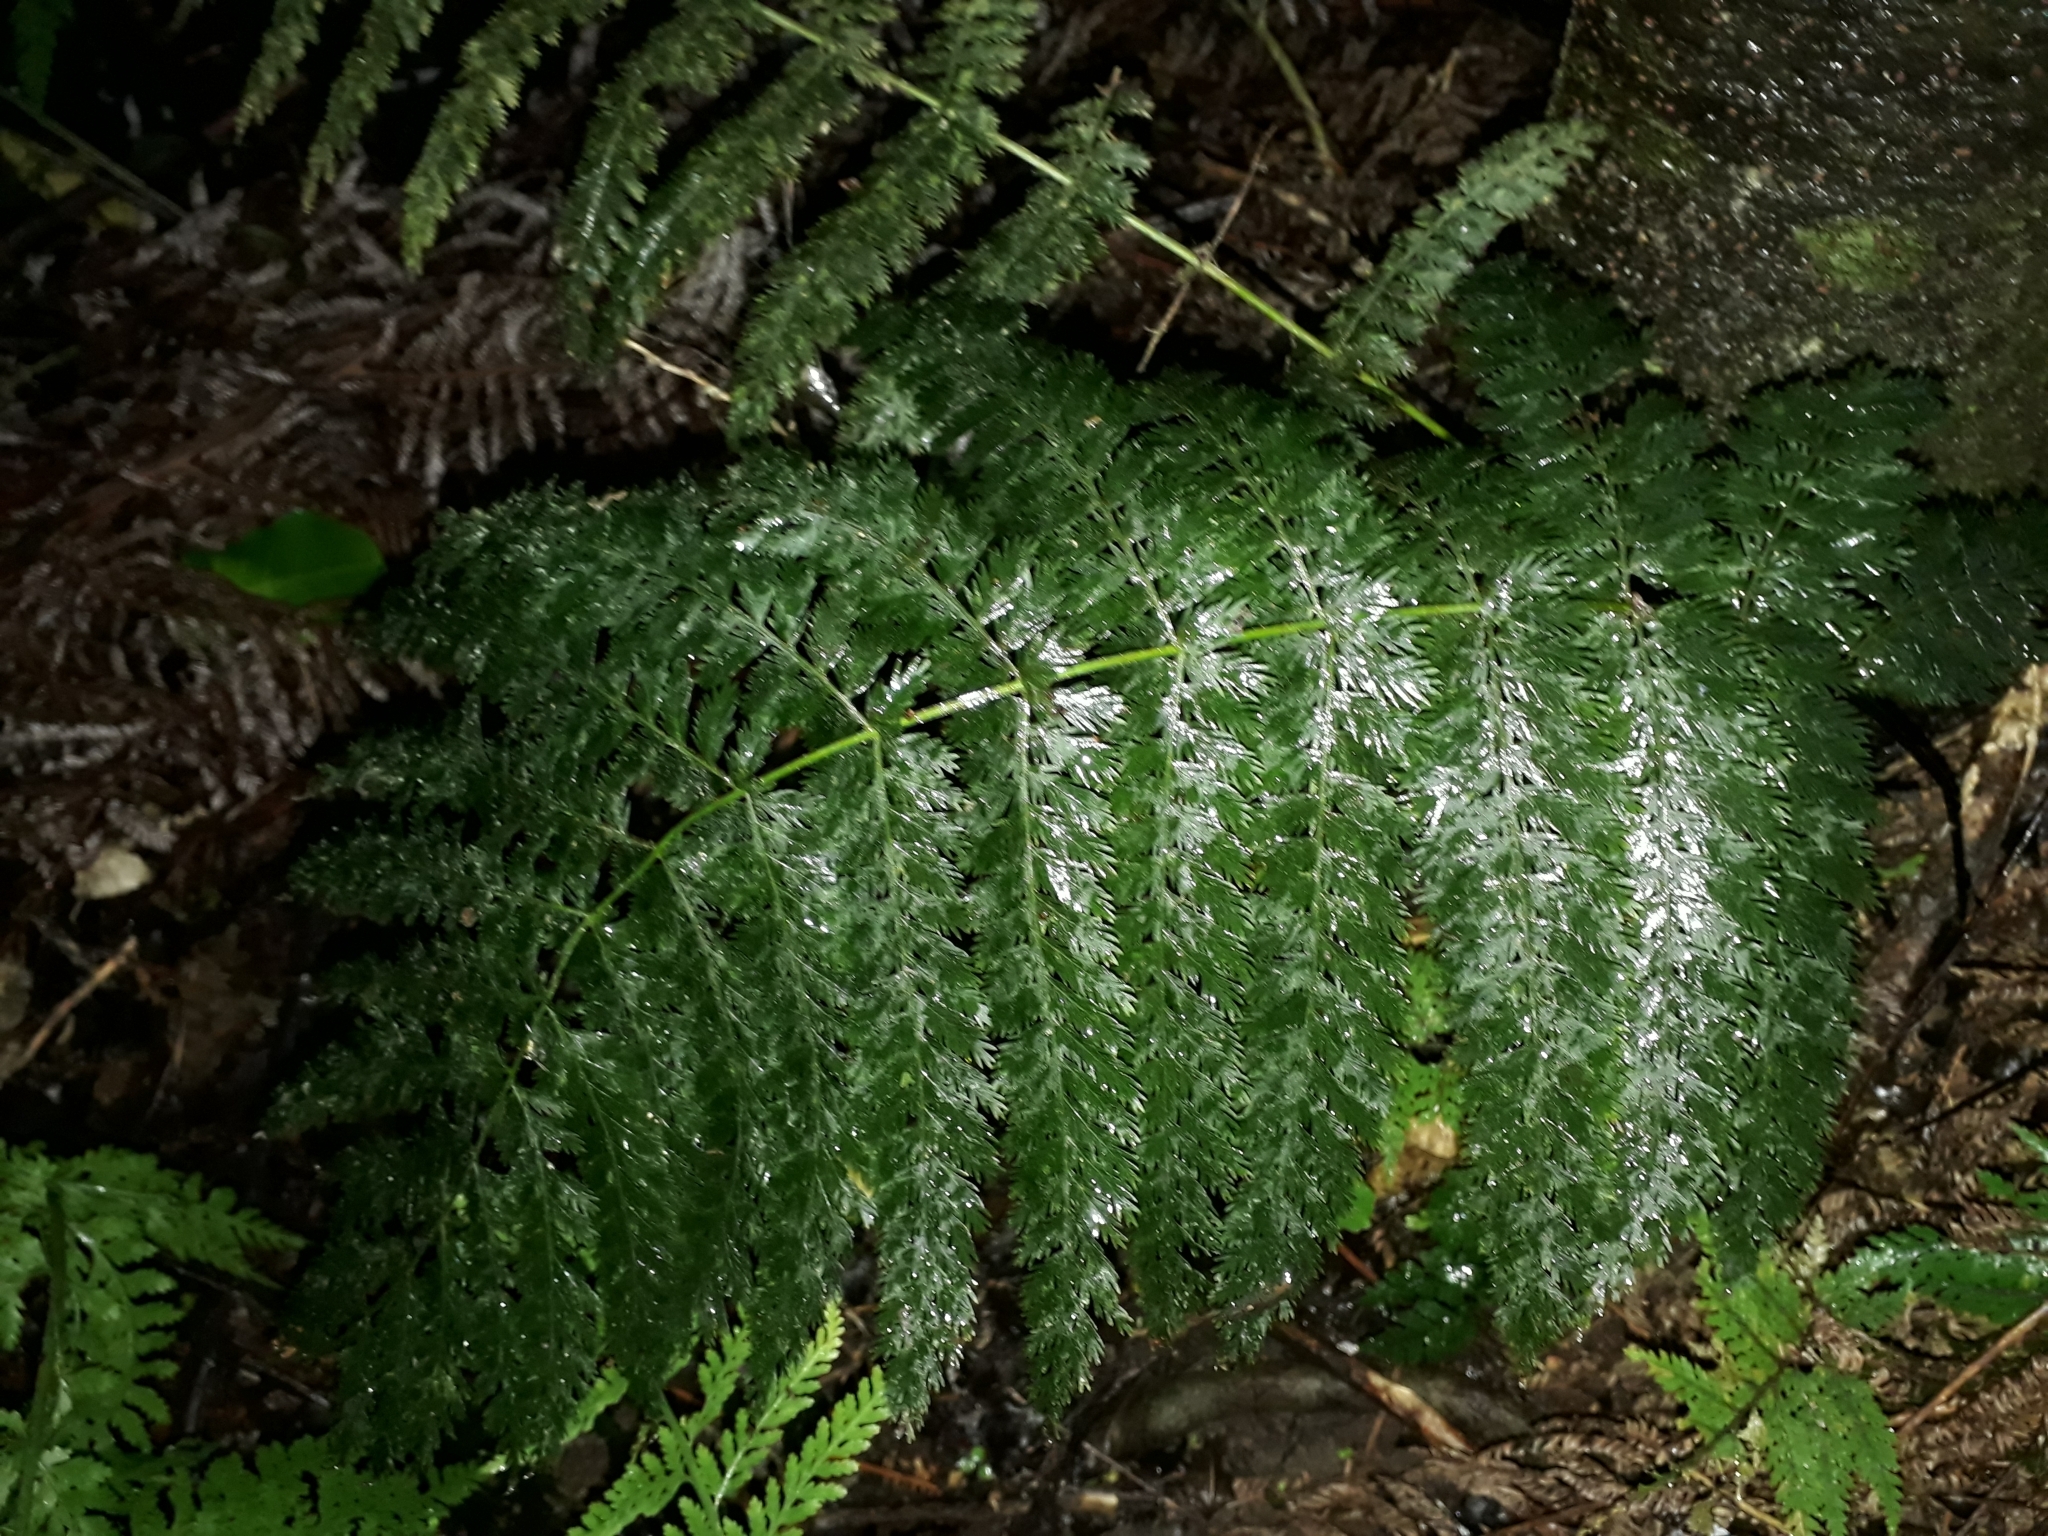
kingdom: Plantae
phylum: Tracheophyta
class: Polypodiopsida
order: Osmundales
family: Osmundaceae
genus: Leptopteris
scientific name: Leptopteris hymenophylloides
